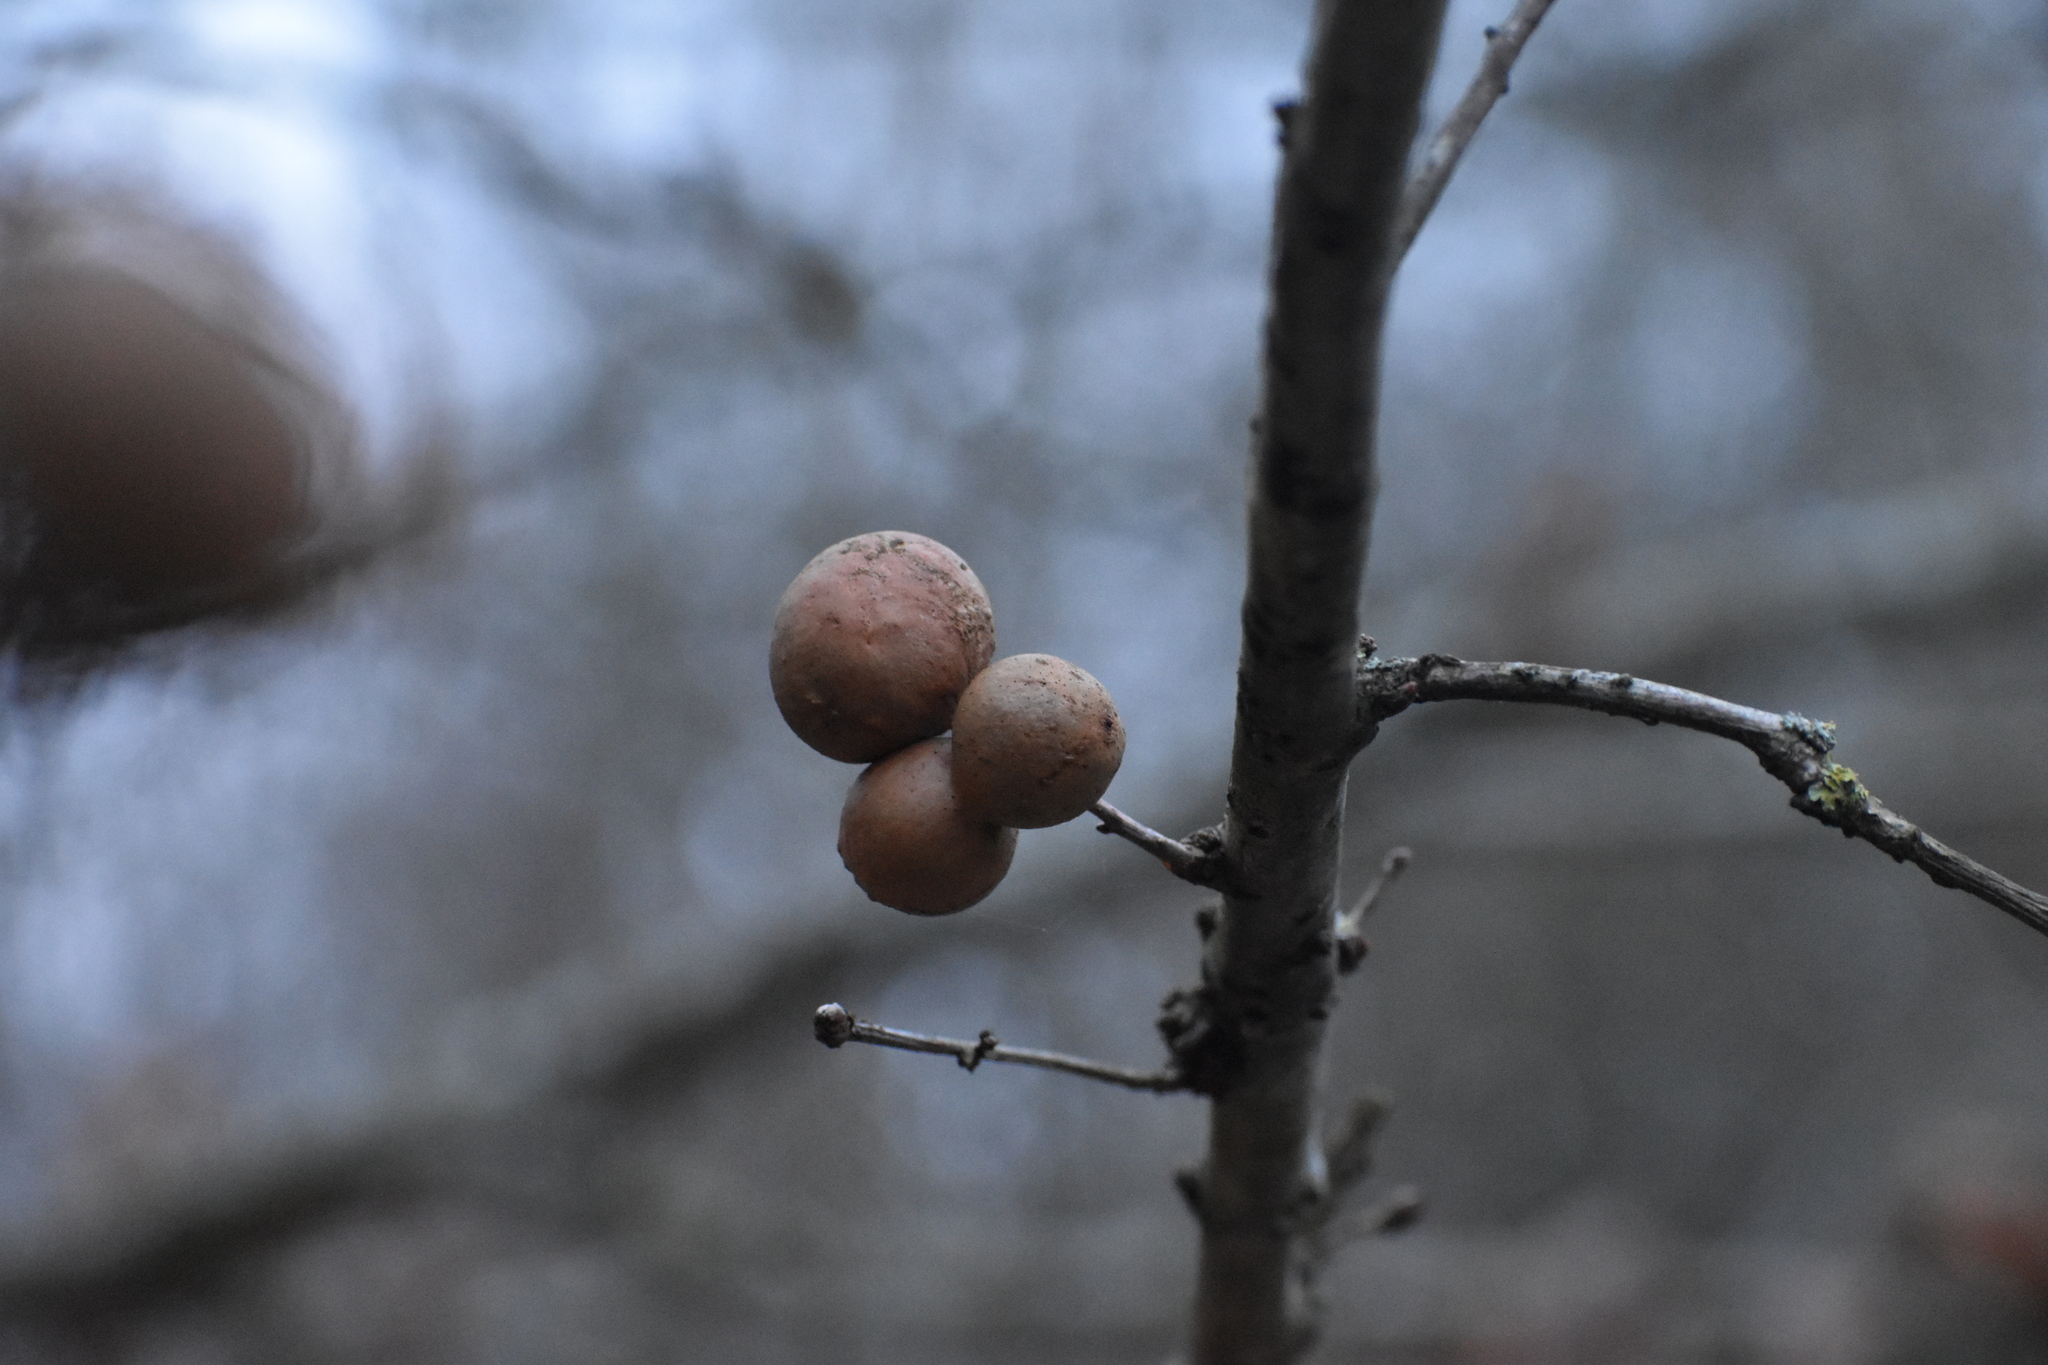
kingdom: Animalia
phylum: Arthropoda
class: Insecta
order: Hymenoptera
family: Cynipidae
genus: Andricus
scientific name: Andricus kollari
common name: Marble gall
